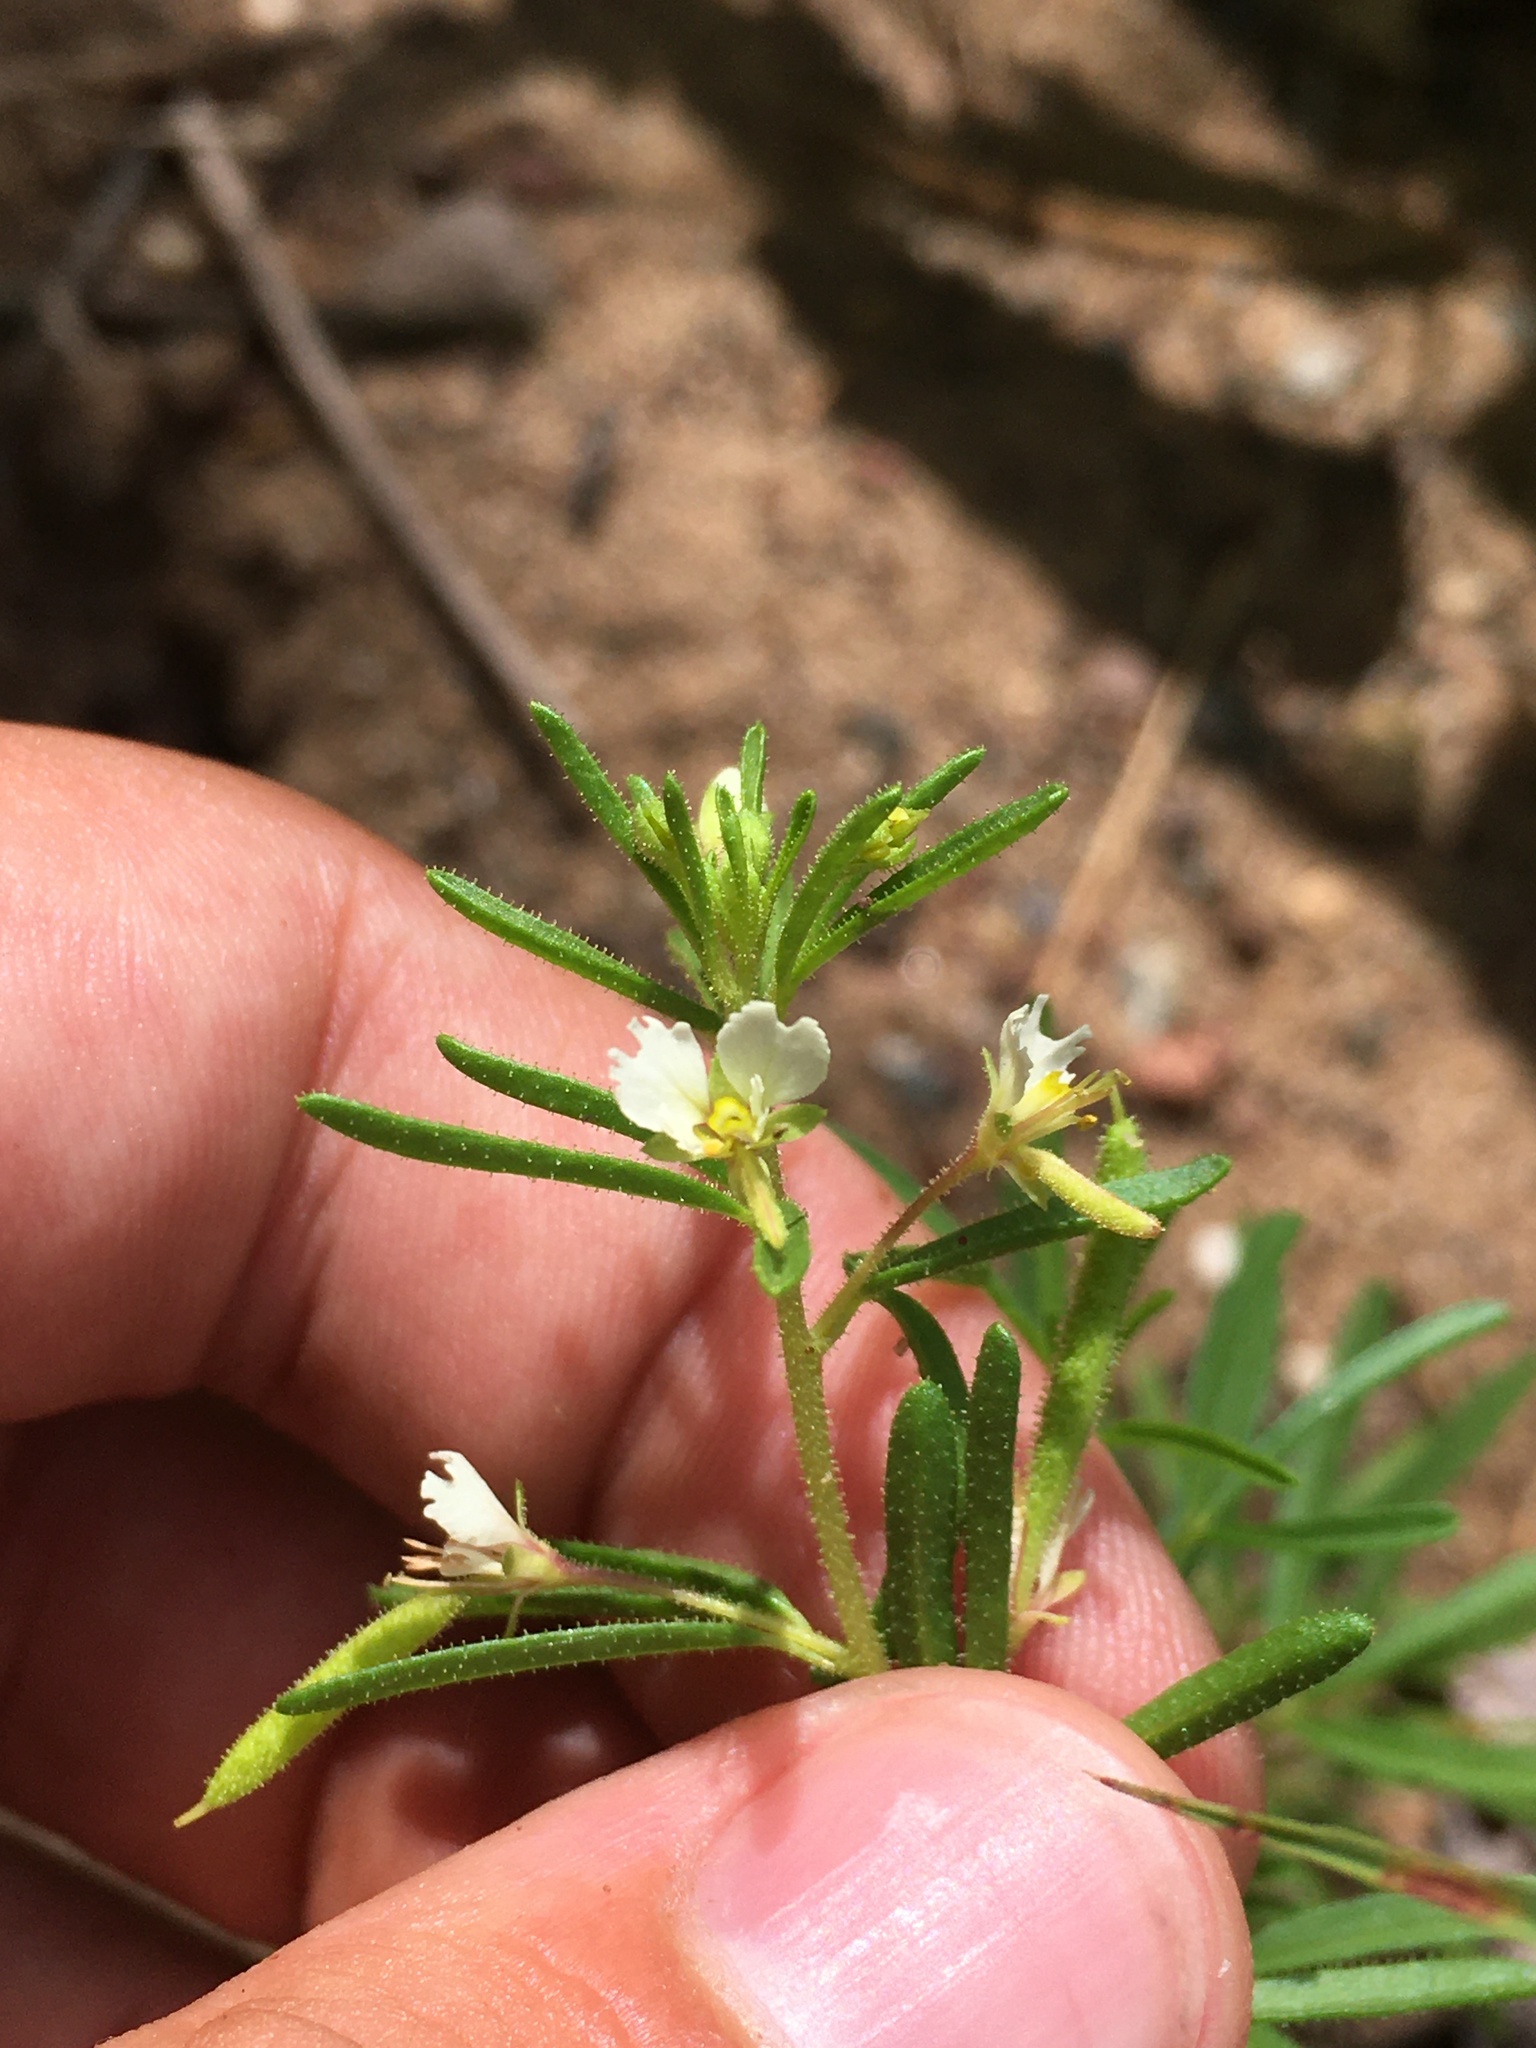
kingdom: Plantae
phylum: Tracheophyta
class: Magnoliopsida
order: Brassicales
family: Cleomaceae
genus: Polanisia
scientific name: Polanisia jamesii
